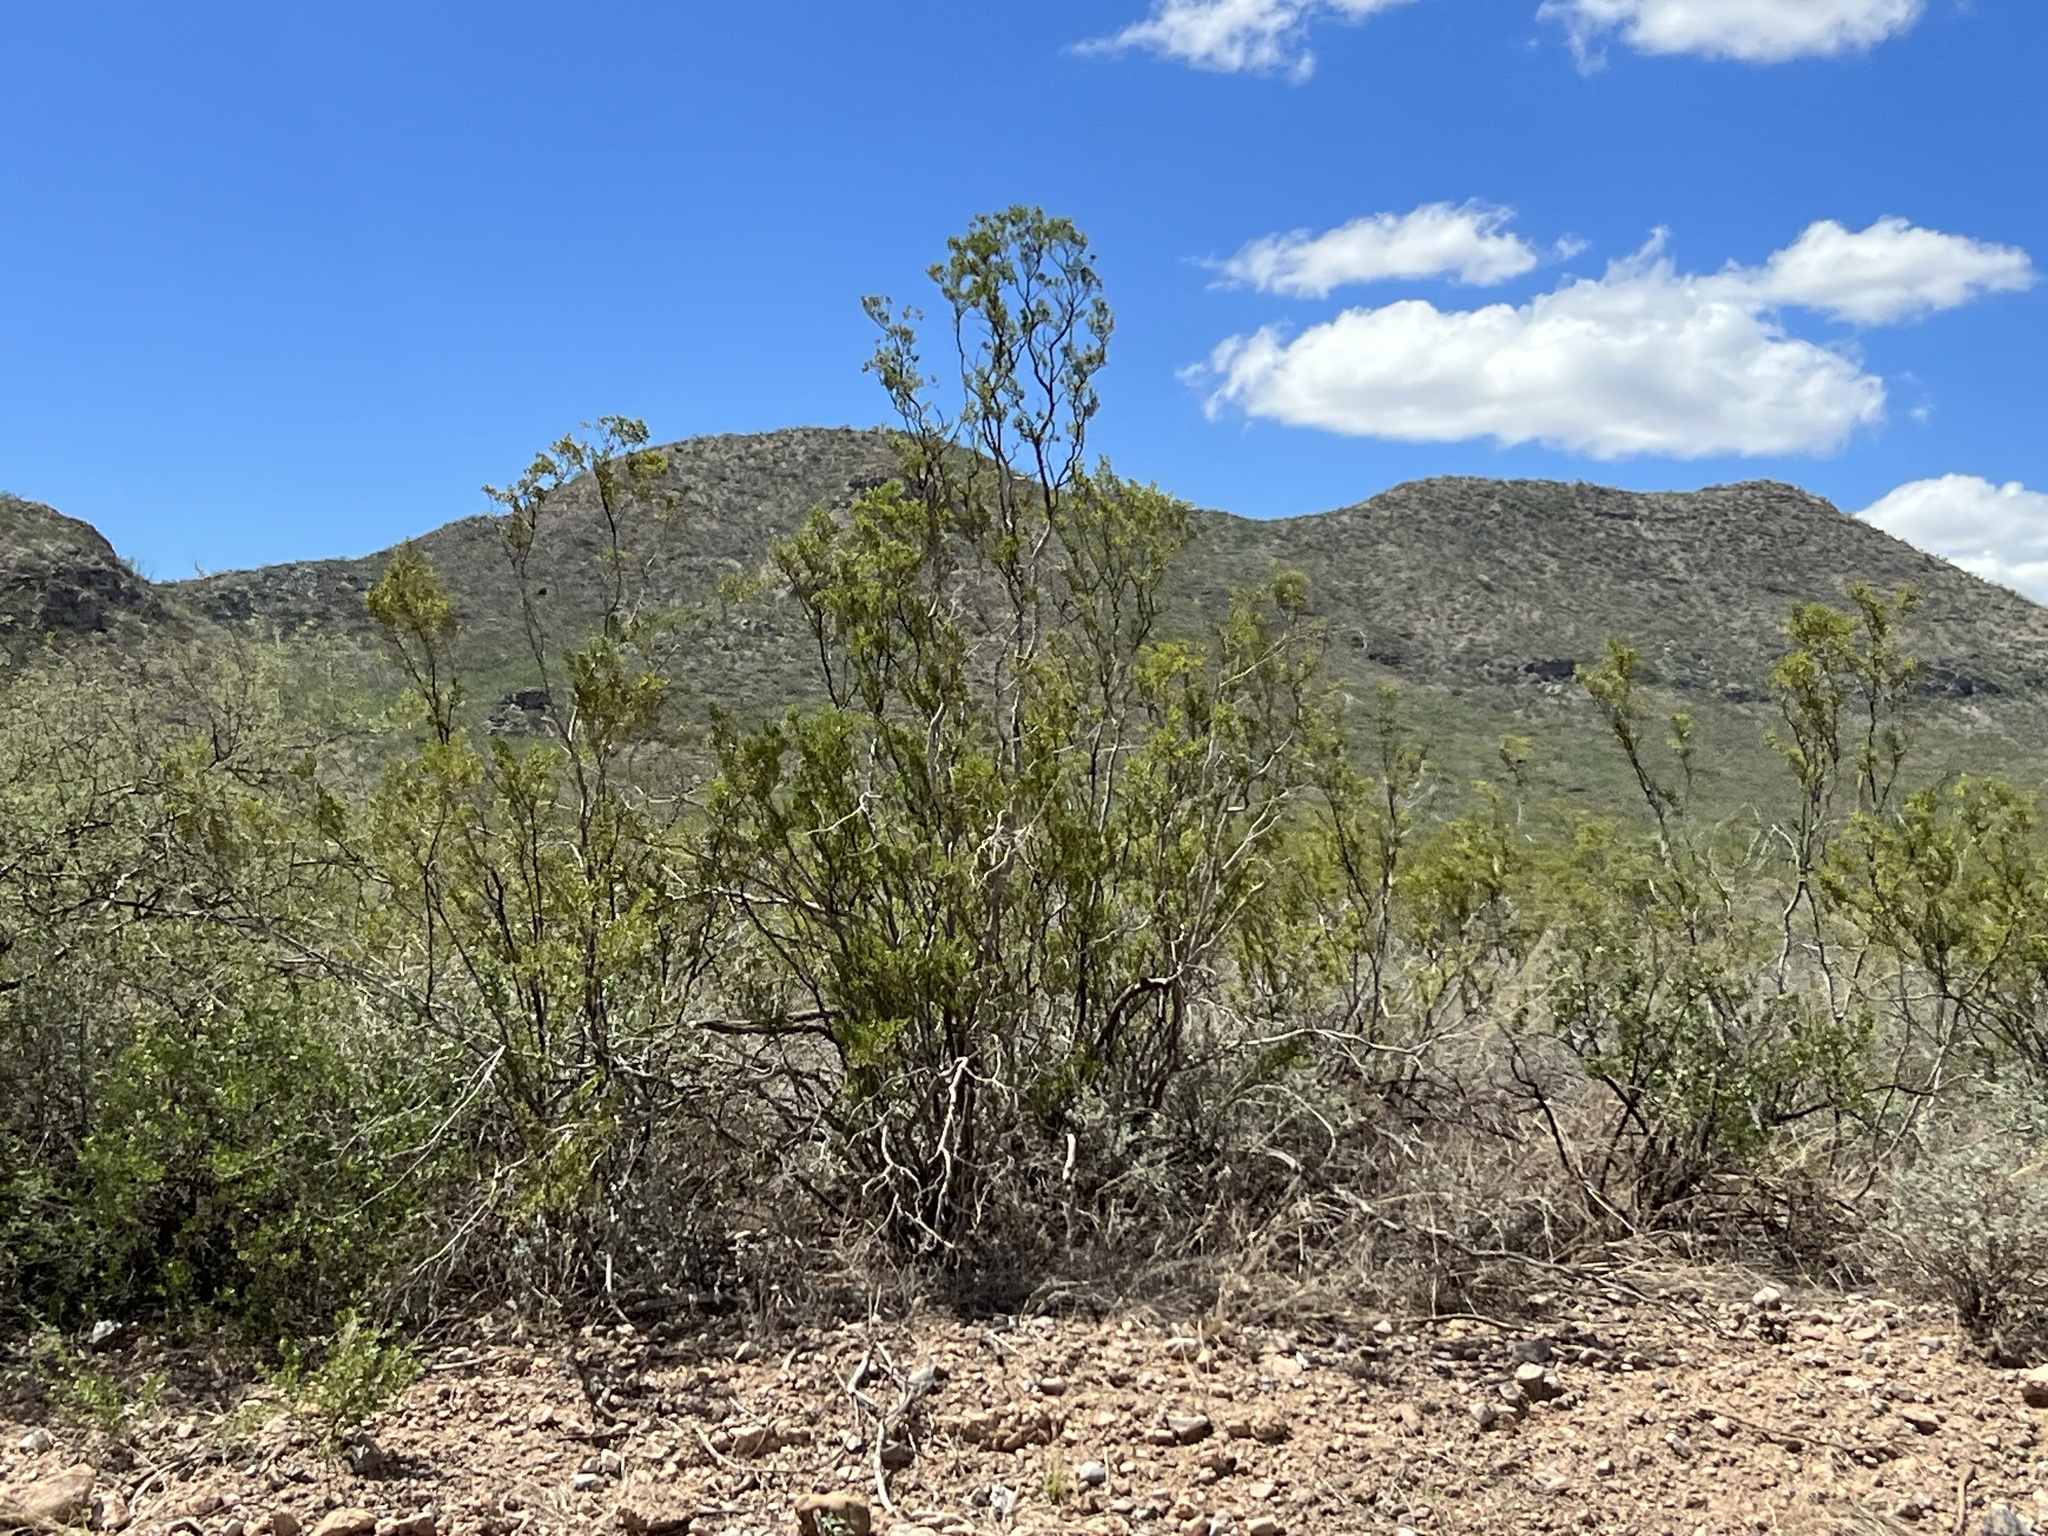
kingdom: Plantae
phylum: Tracheophyta
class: Magnoliopsida
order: Zygophyllales
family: Zygophyllaceae
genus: Larrea
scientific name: Larrea tridentata
